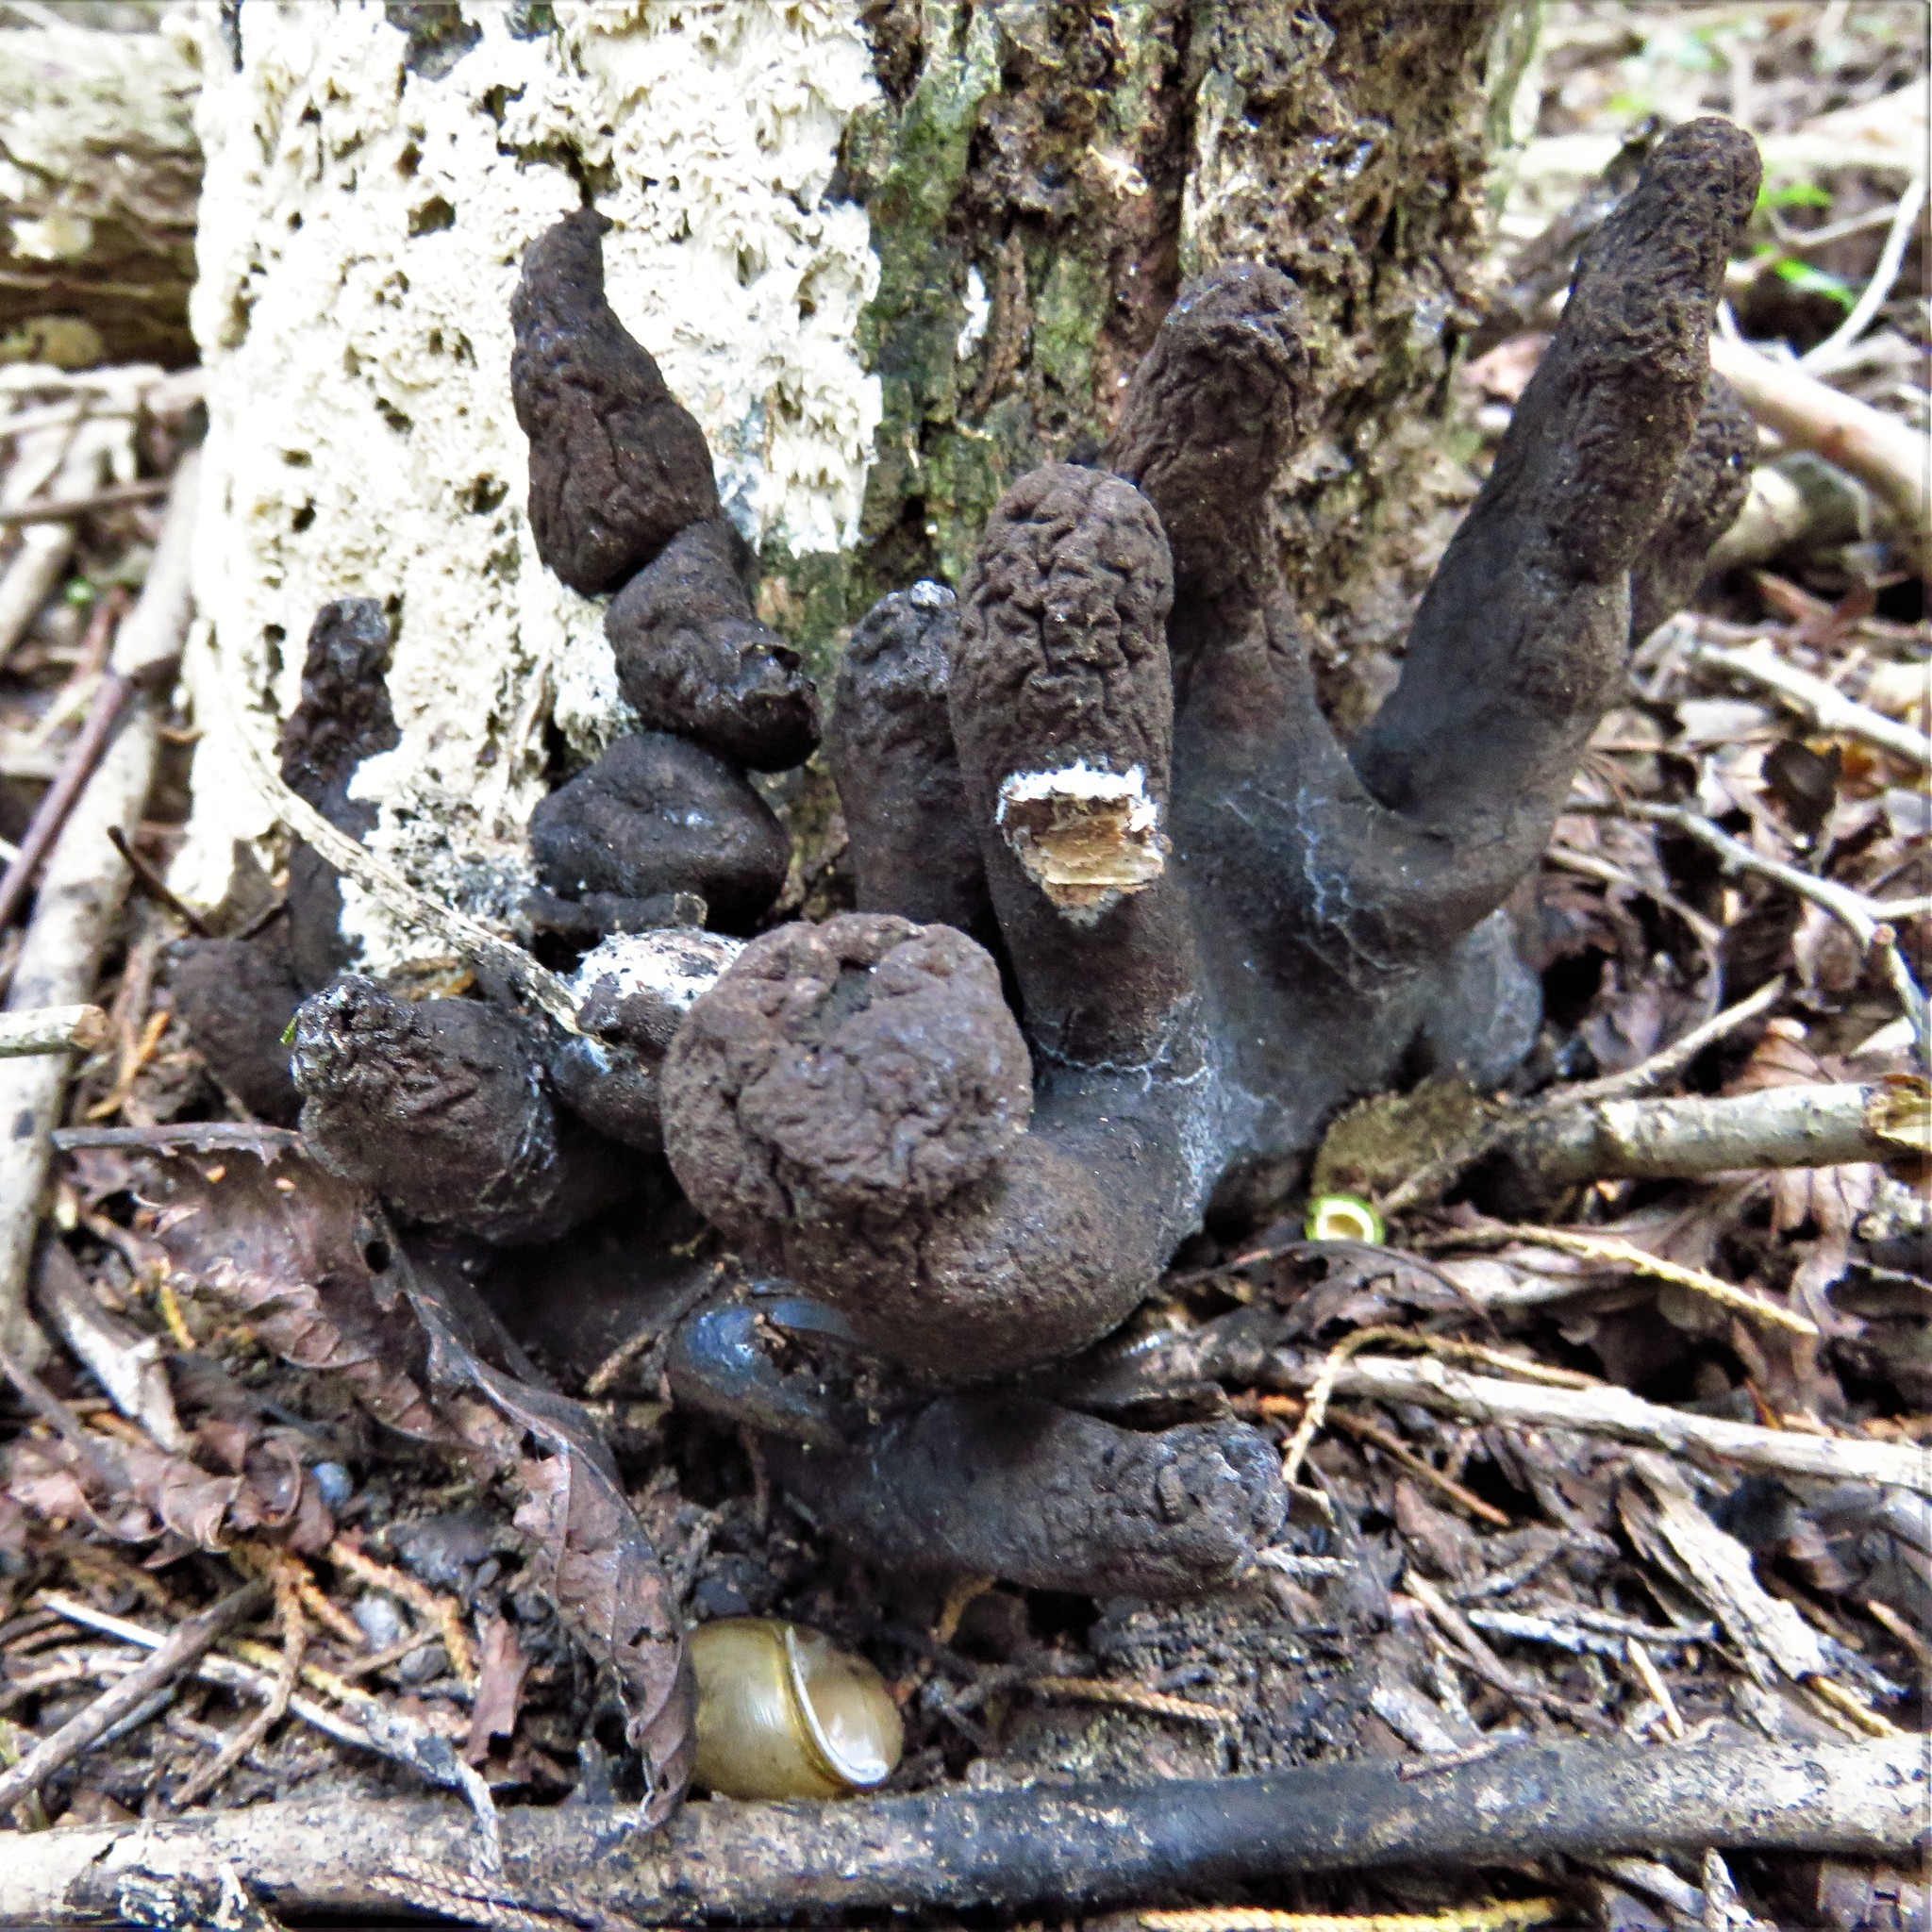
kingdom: Fungi
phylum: Ascomycota
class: Sordariomycetes
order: Xylariales
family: Xylariaceae
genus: Xylaria
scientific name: Xylaria polymorpha
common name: Dead man's fingers
